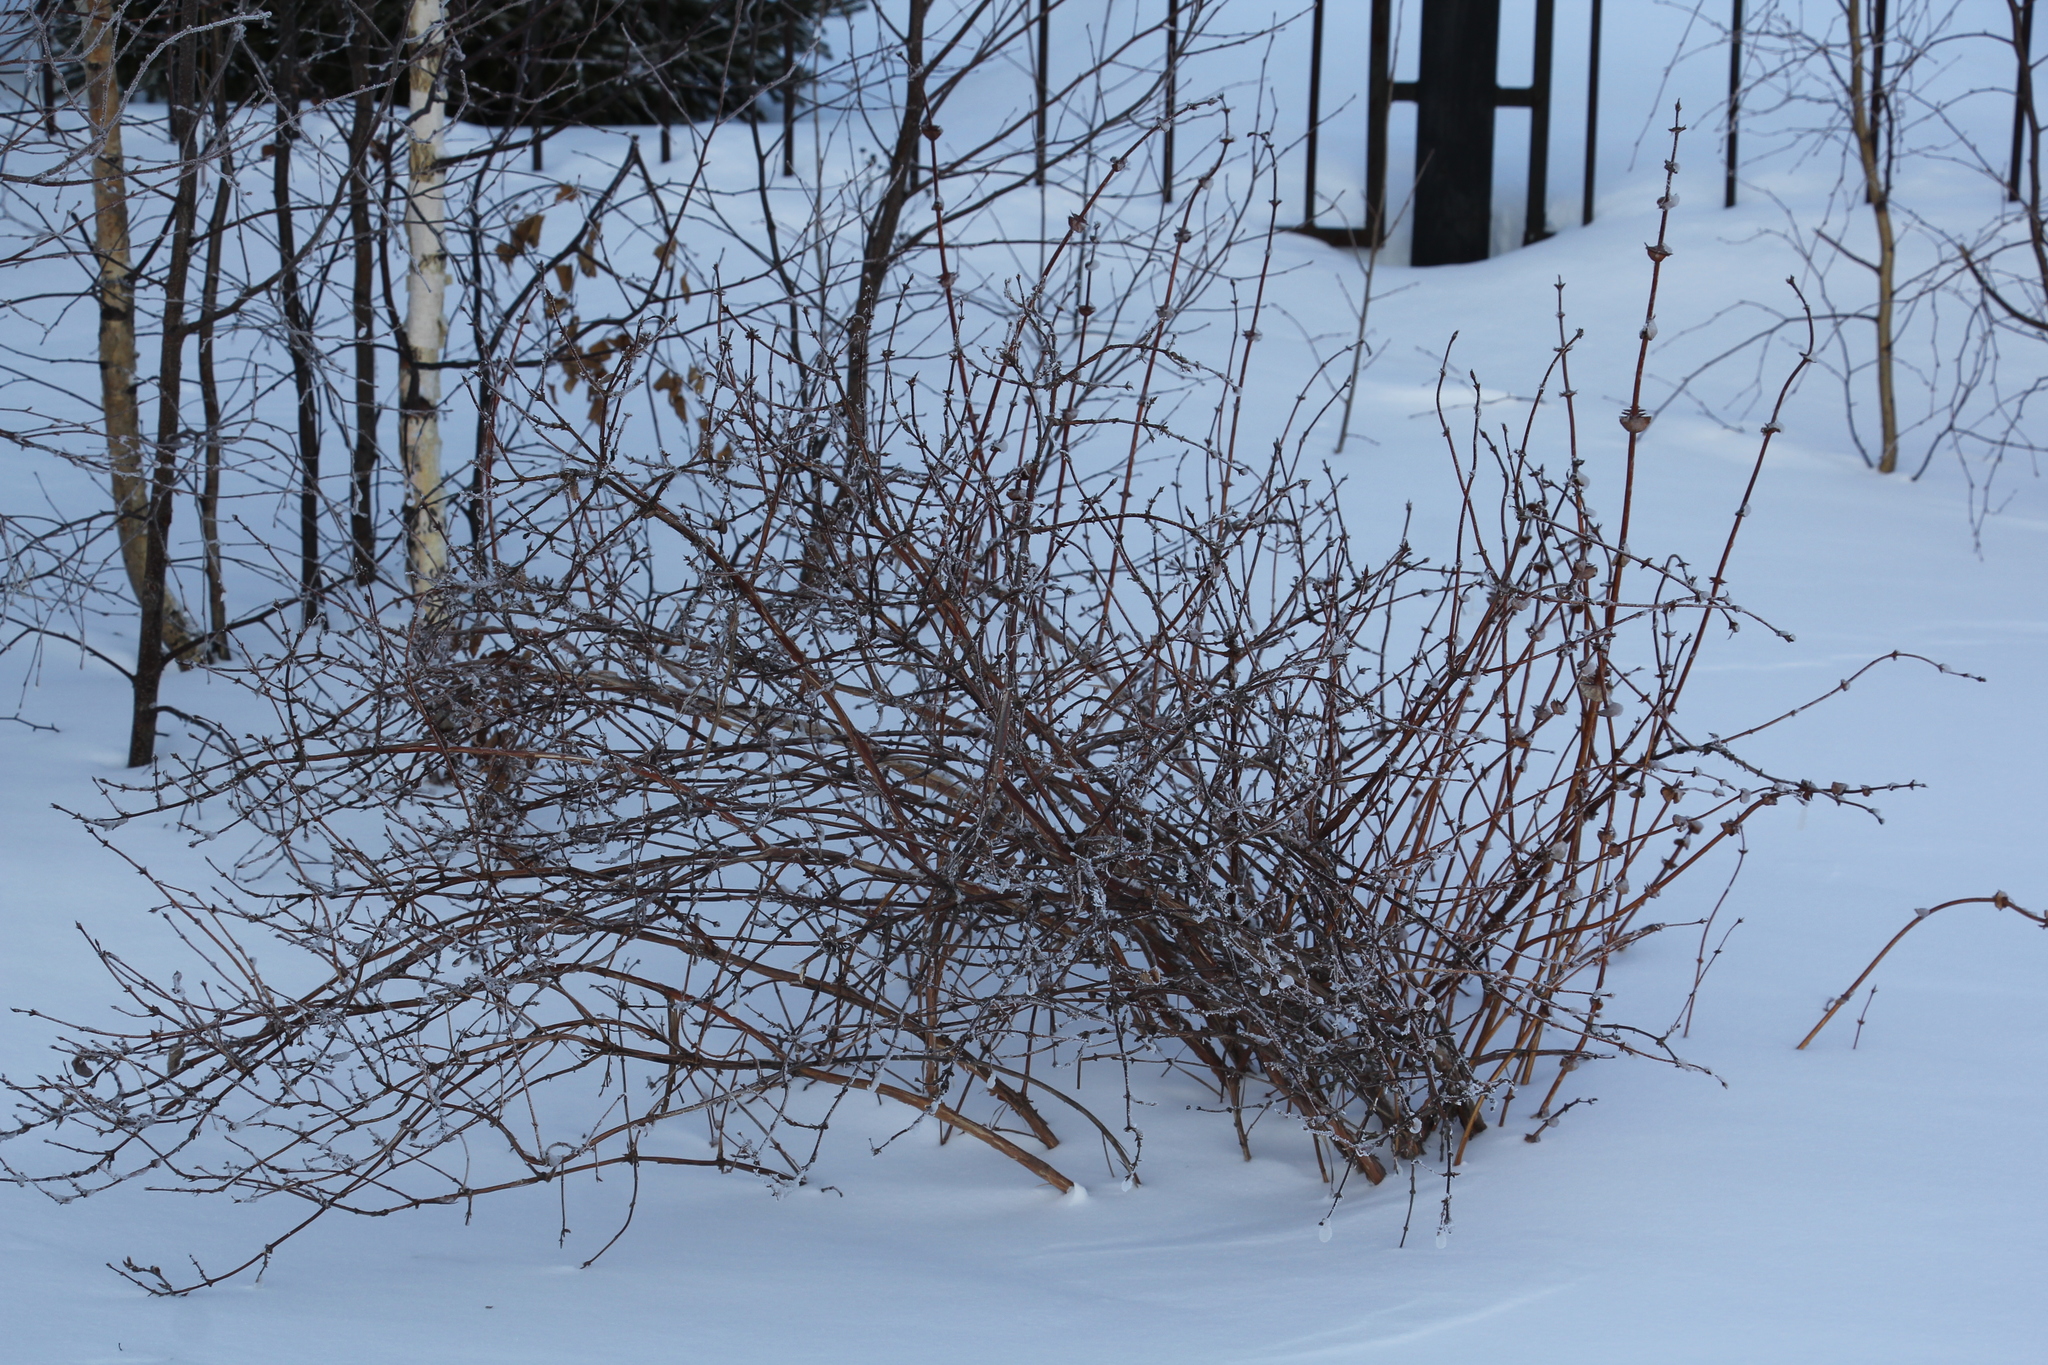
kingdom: Plantae
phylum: Tracheophyta
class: Magnoliopsida
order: Dipsacales
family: Caprifoliaceae
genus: Lonicera
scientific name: Lonicera caerulea
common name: Blue honeysuckle
